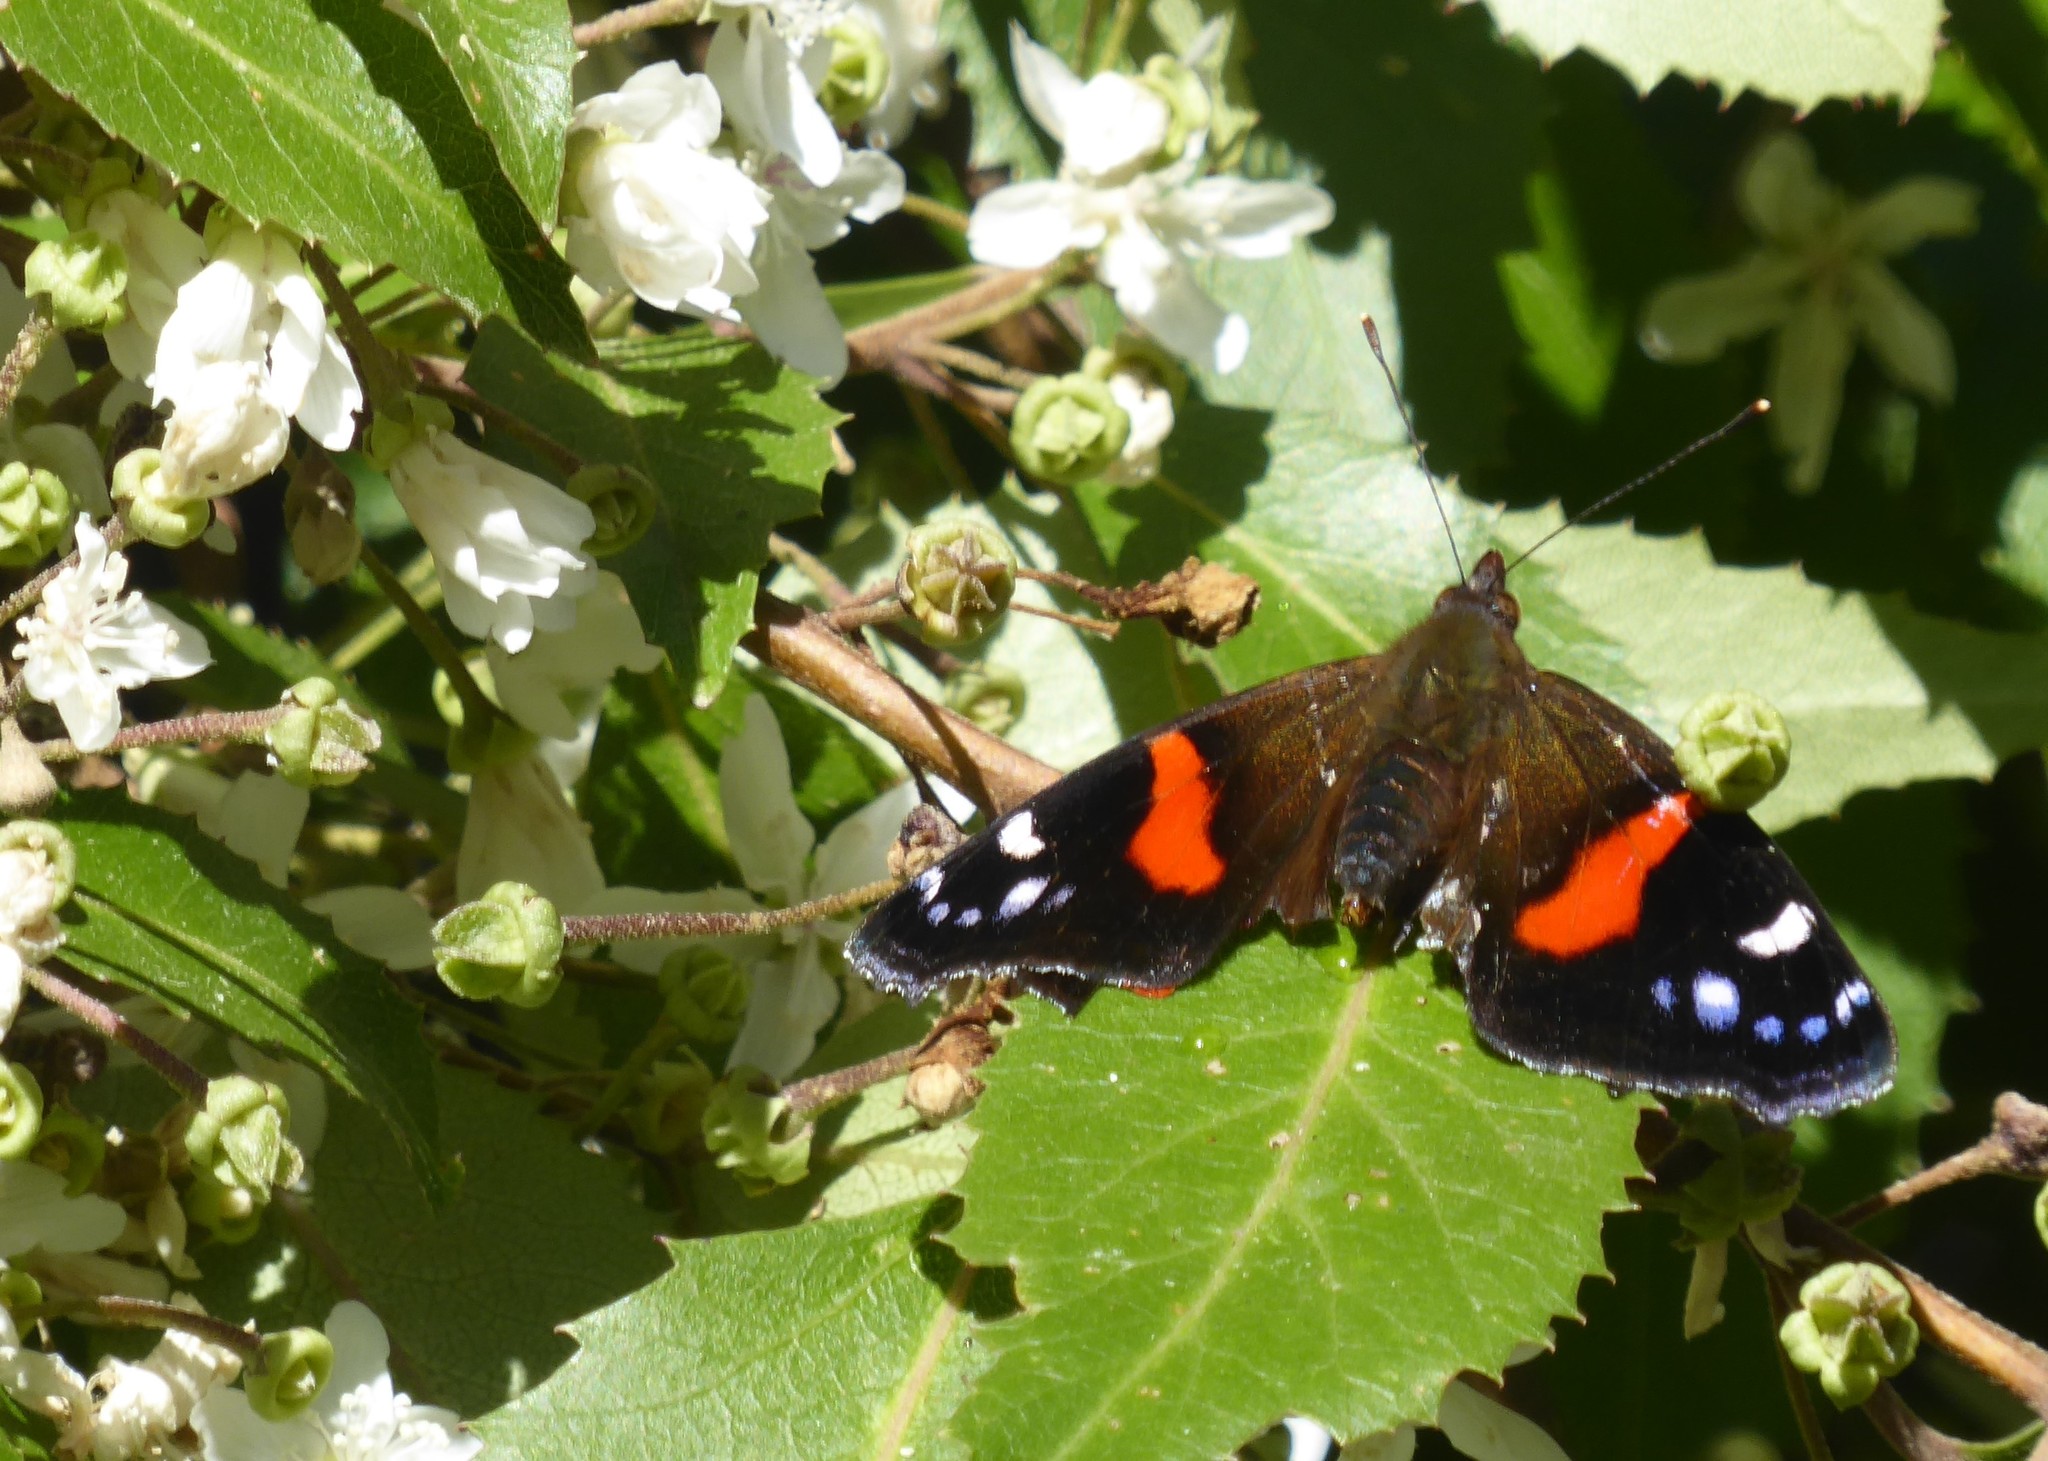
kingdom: Animalia
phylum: Arthropoda
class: Insecta
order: Lepidoptera
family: Nymphalidae
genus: Vanessa
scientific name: Vanessa gonerilla
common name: New zealand red admiral
